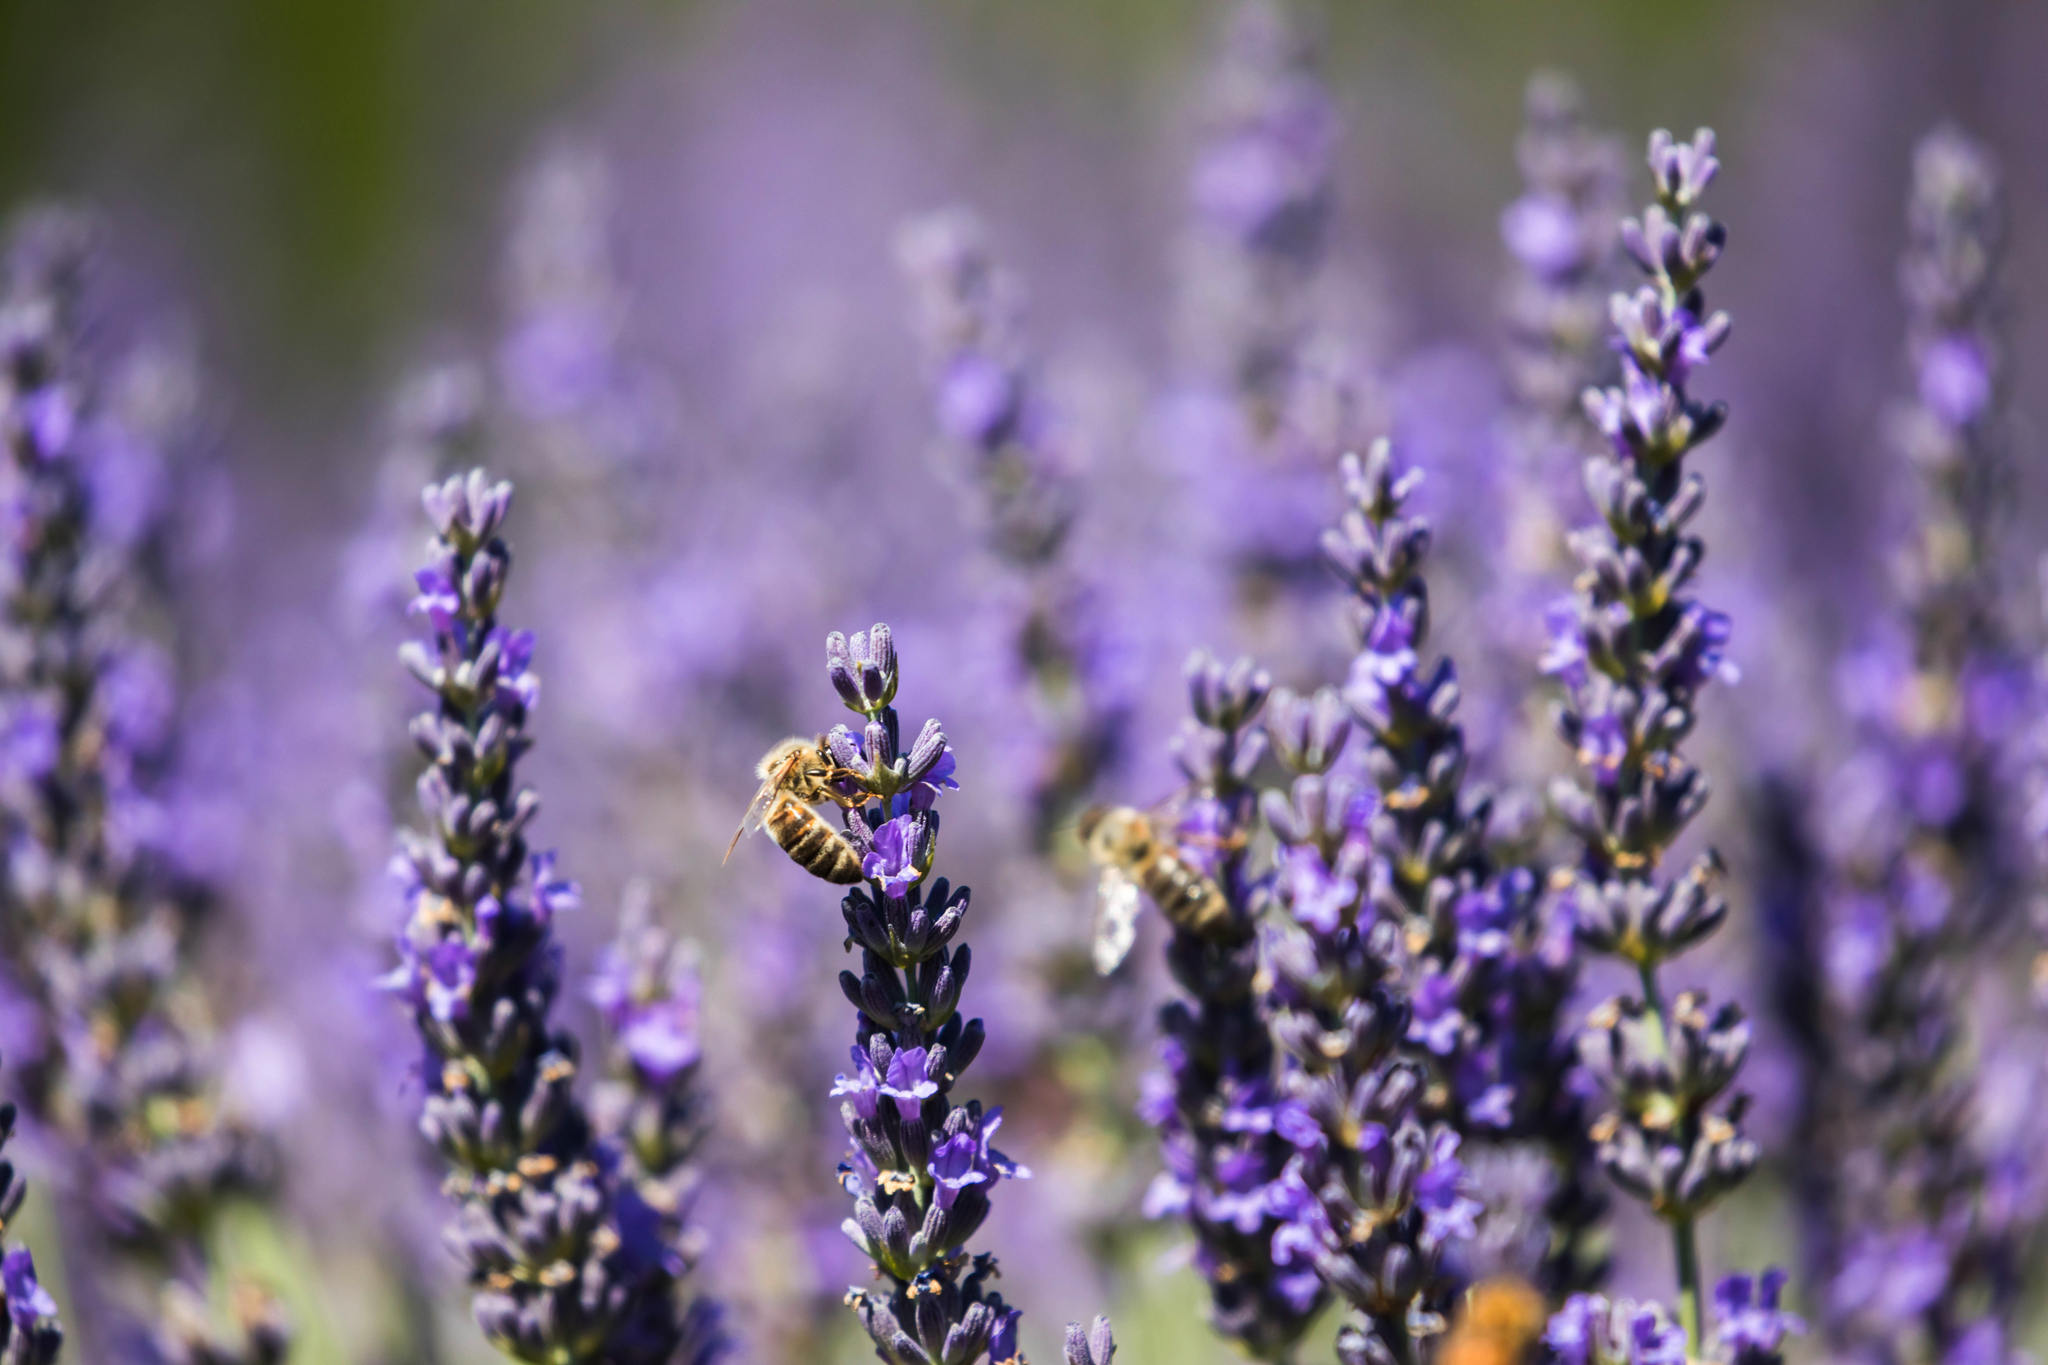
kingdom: Animalia
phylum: Arthropoda
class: Insecta
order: Hymenoptera
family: Apidae
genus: Apis
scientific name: Apis mellifera
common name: Honey bee
